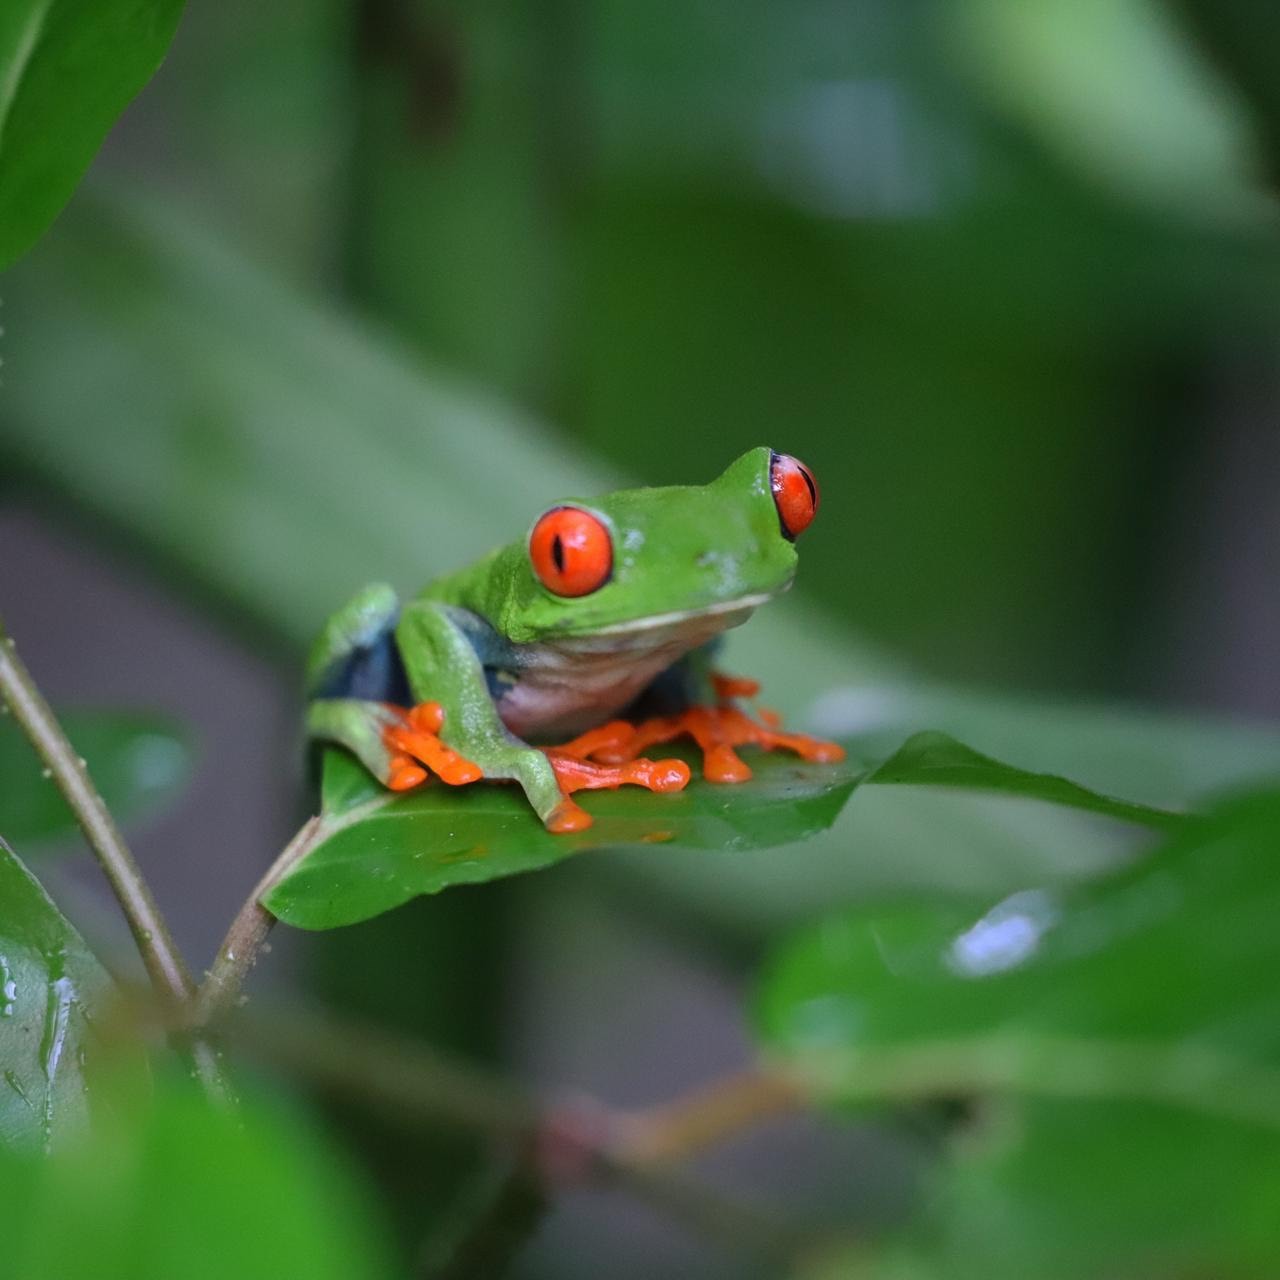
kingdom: Animalia
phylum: Chordata
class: Amphibia
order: Anura
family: Phyllomedusidae
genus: Agalychnis
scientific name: Agalychnis callidryas
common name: Red-eyed treefrog
